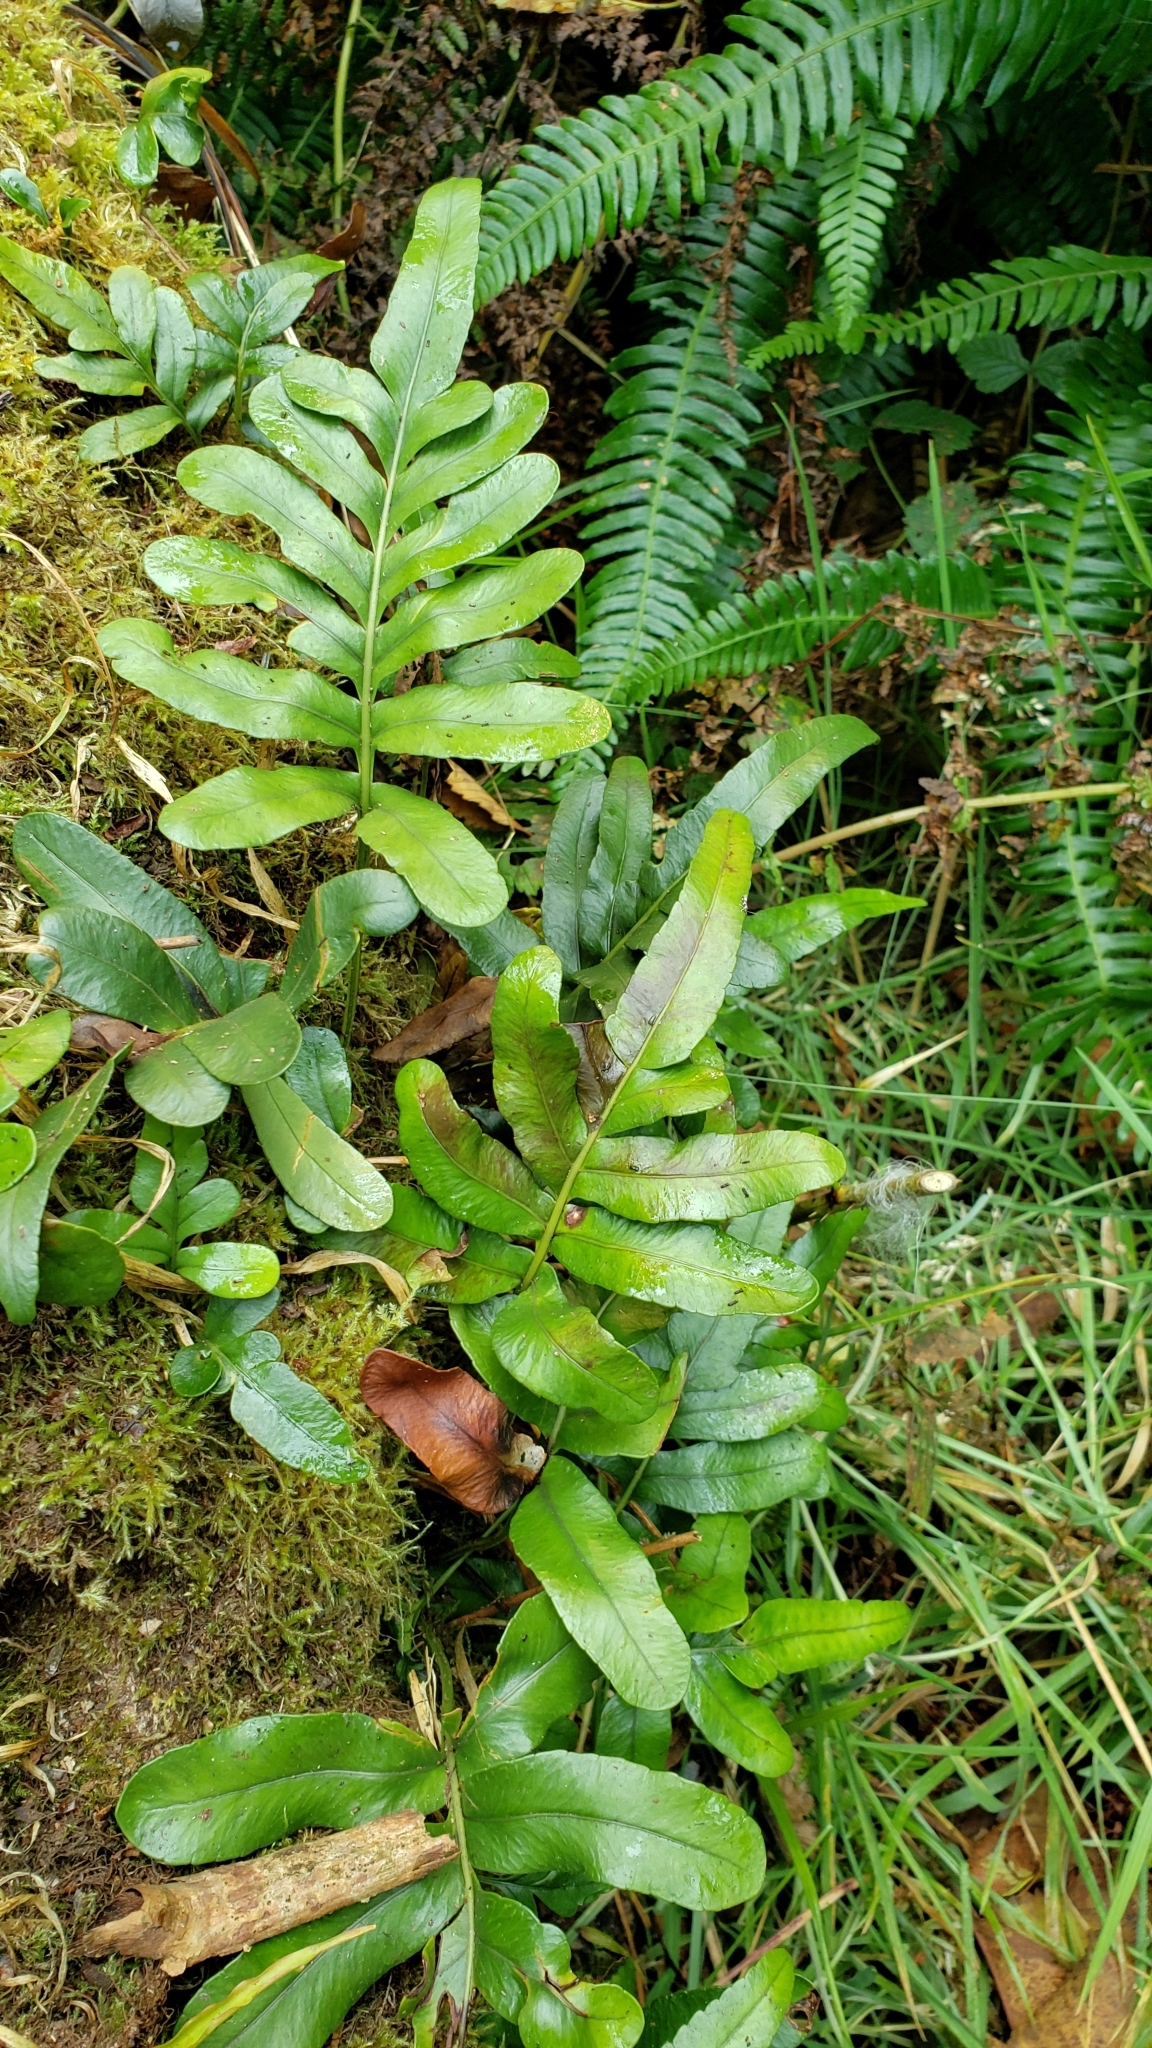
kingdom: Plantae
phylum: Tracheophyta
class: Polypodiopsida
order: Polypodiales
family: Polypodiaceae
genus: Polypodium
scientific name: Polypodium scouleri
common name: Scouler's polypody
